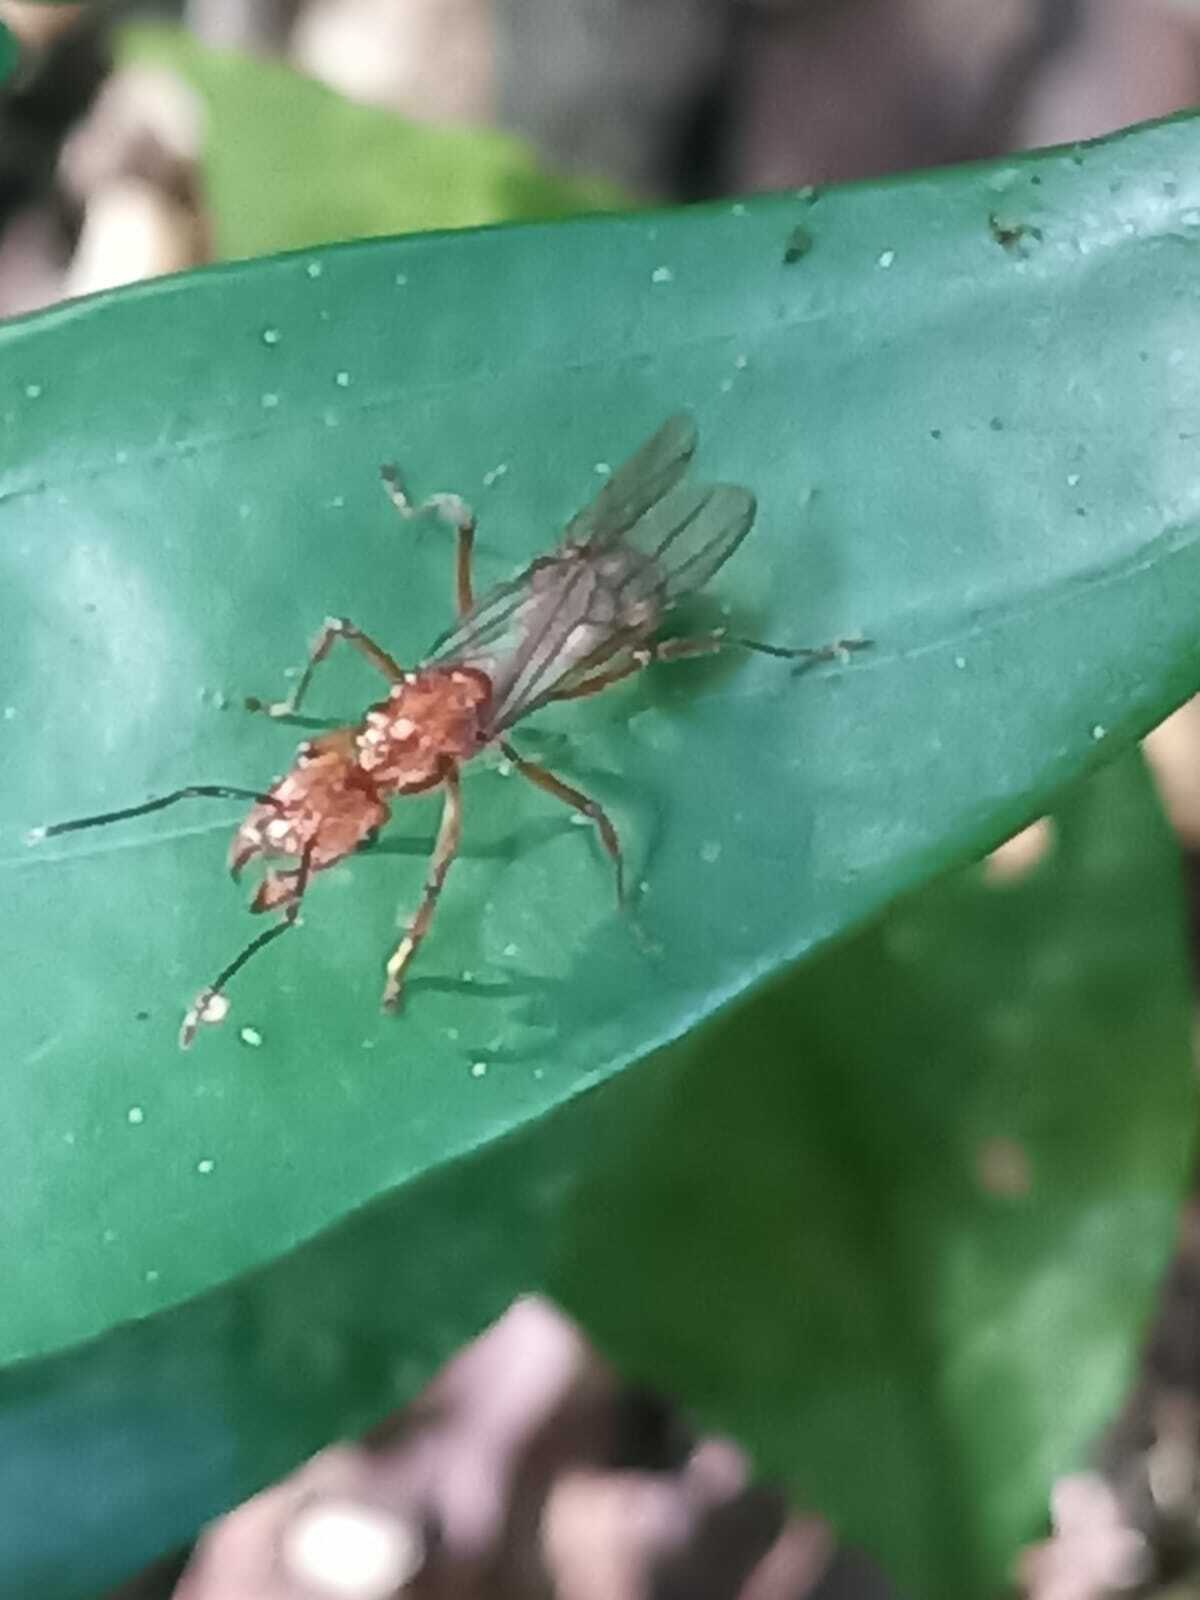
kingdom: Animalia
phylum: Arthropoda
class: Insecta
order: Hymenoptera
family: Formicidae
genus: Ectatomma
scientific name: Ectatomma tuberculatum
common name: Ant
